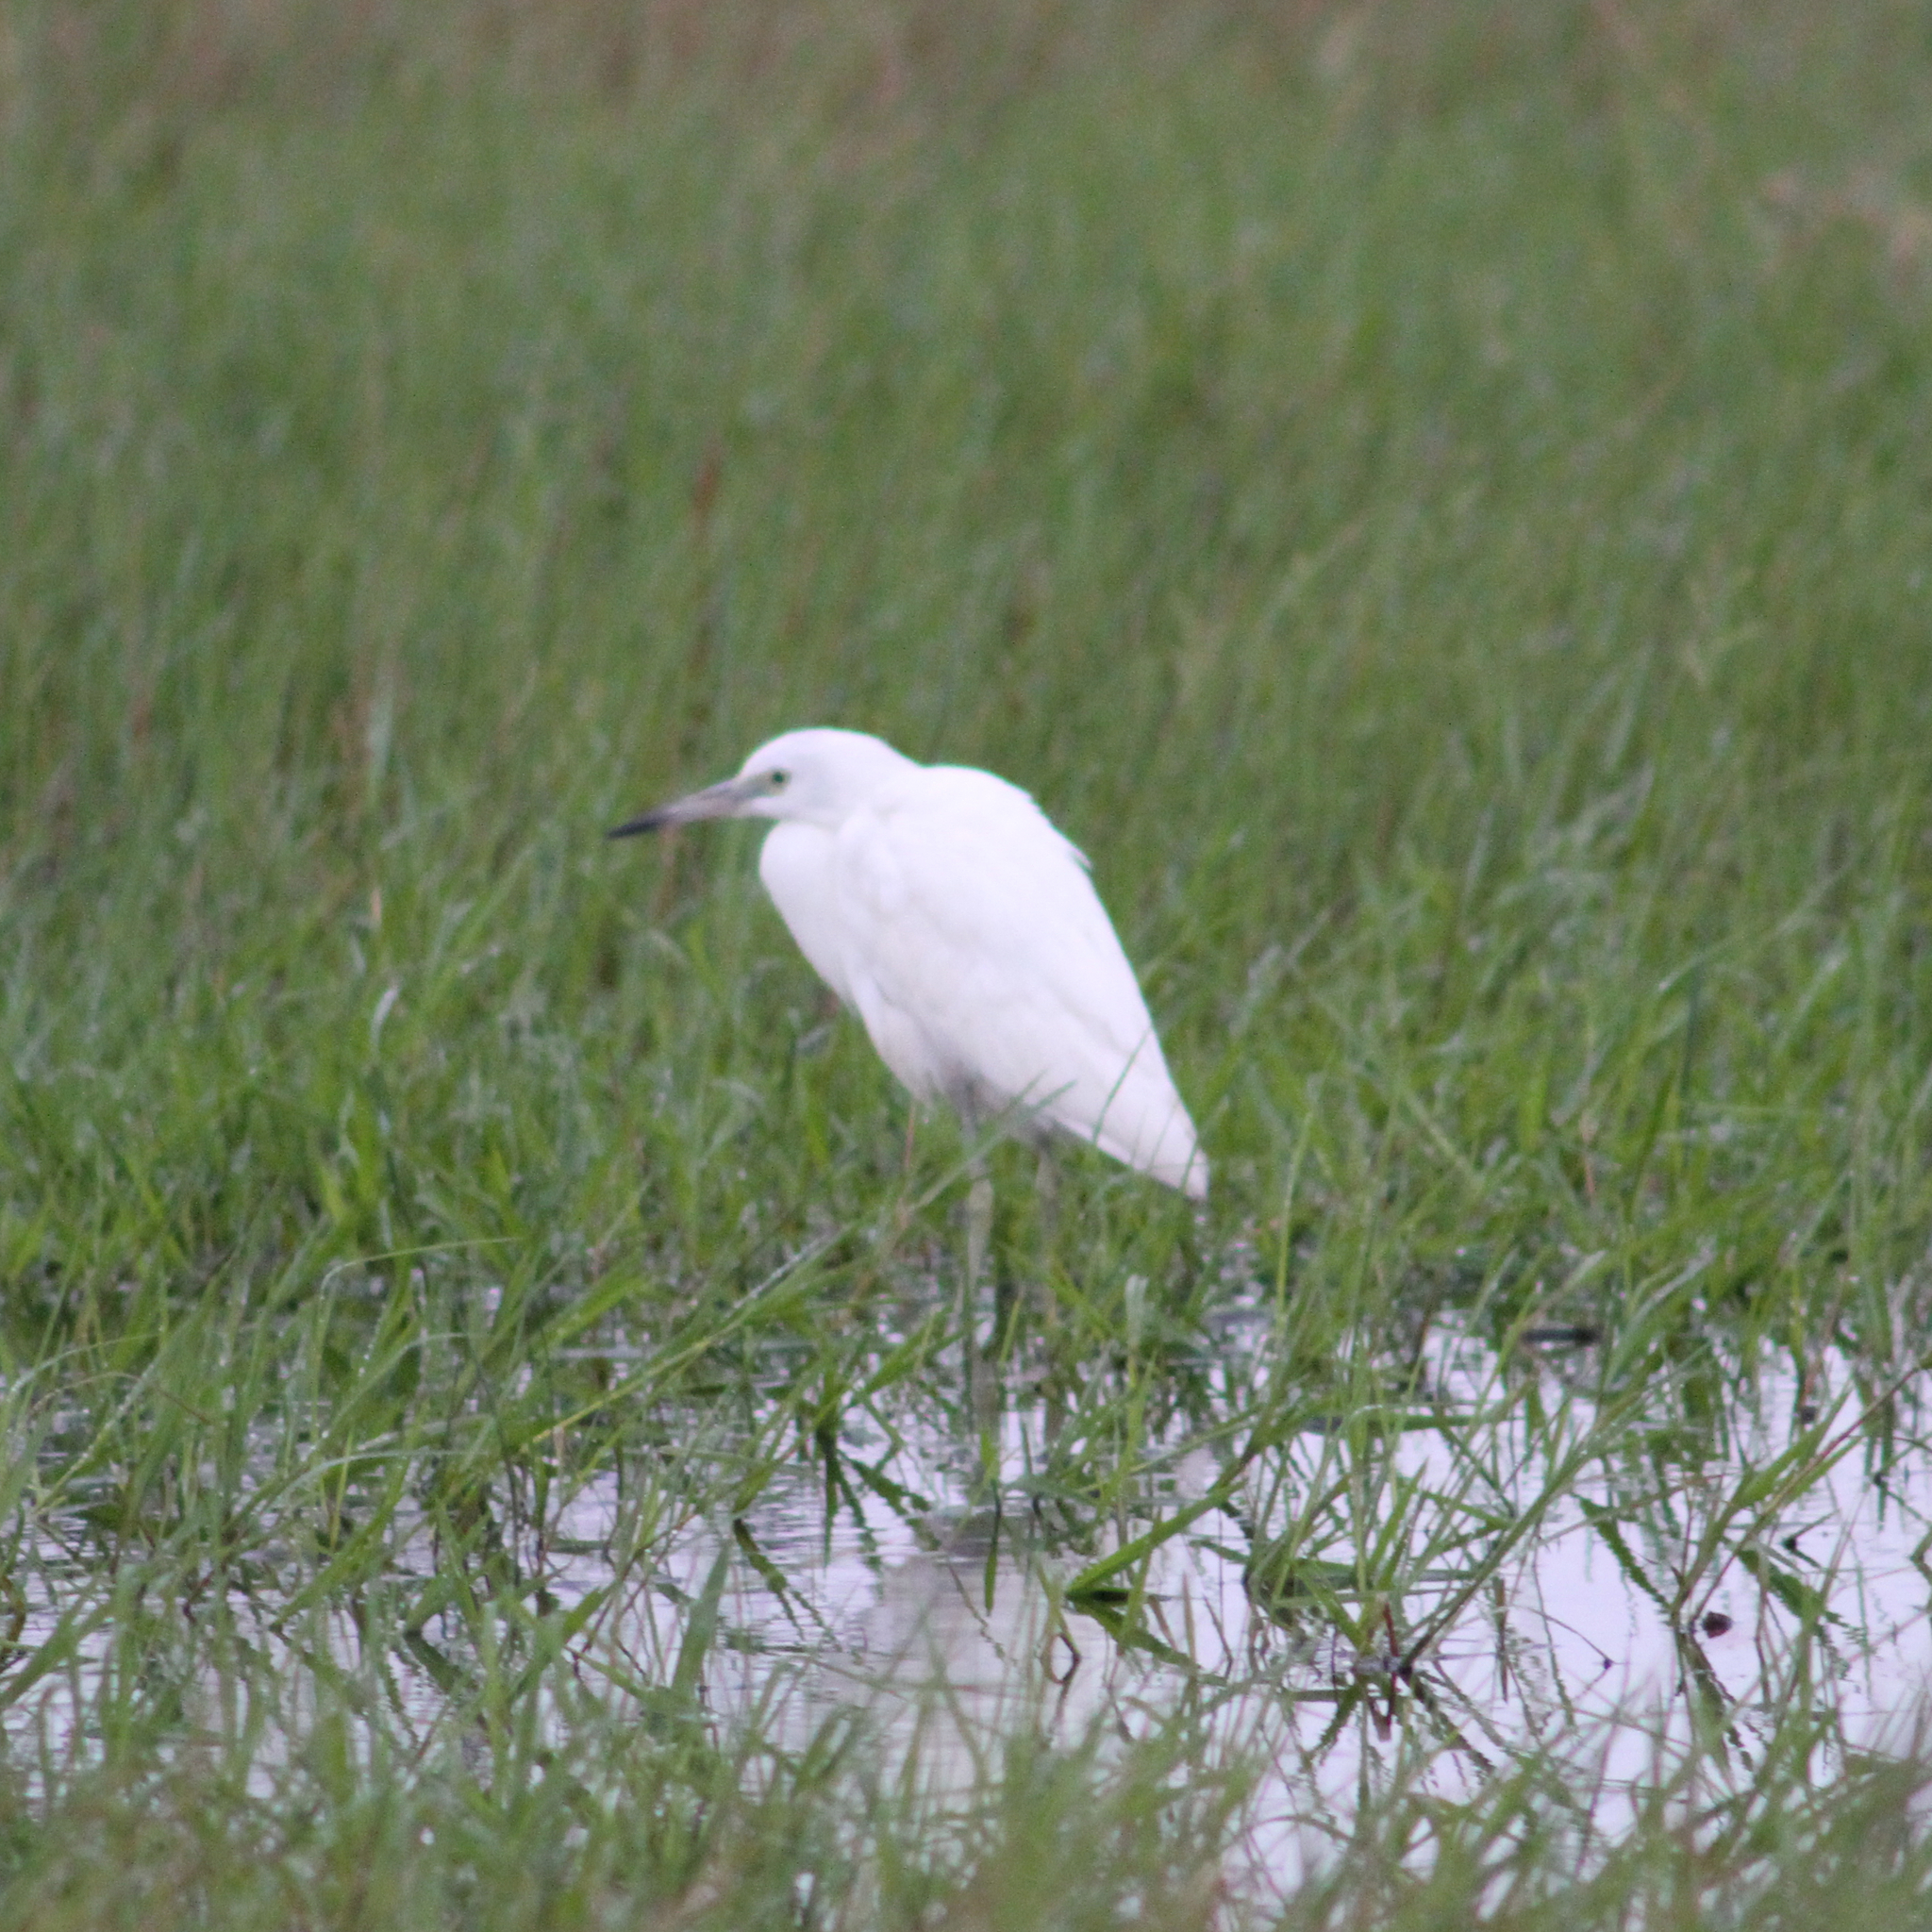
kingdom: Animalia
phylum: Chordata
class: Aves
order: Pelecaniformes
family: Ardeidae
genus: Egretta
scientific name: Egretta caerulea
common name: Little blue heron
